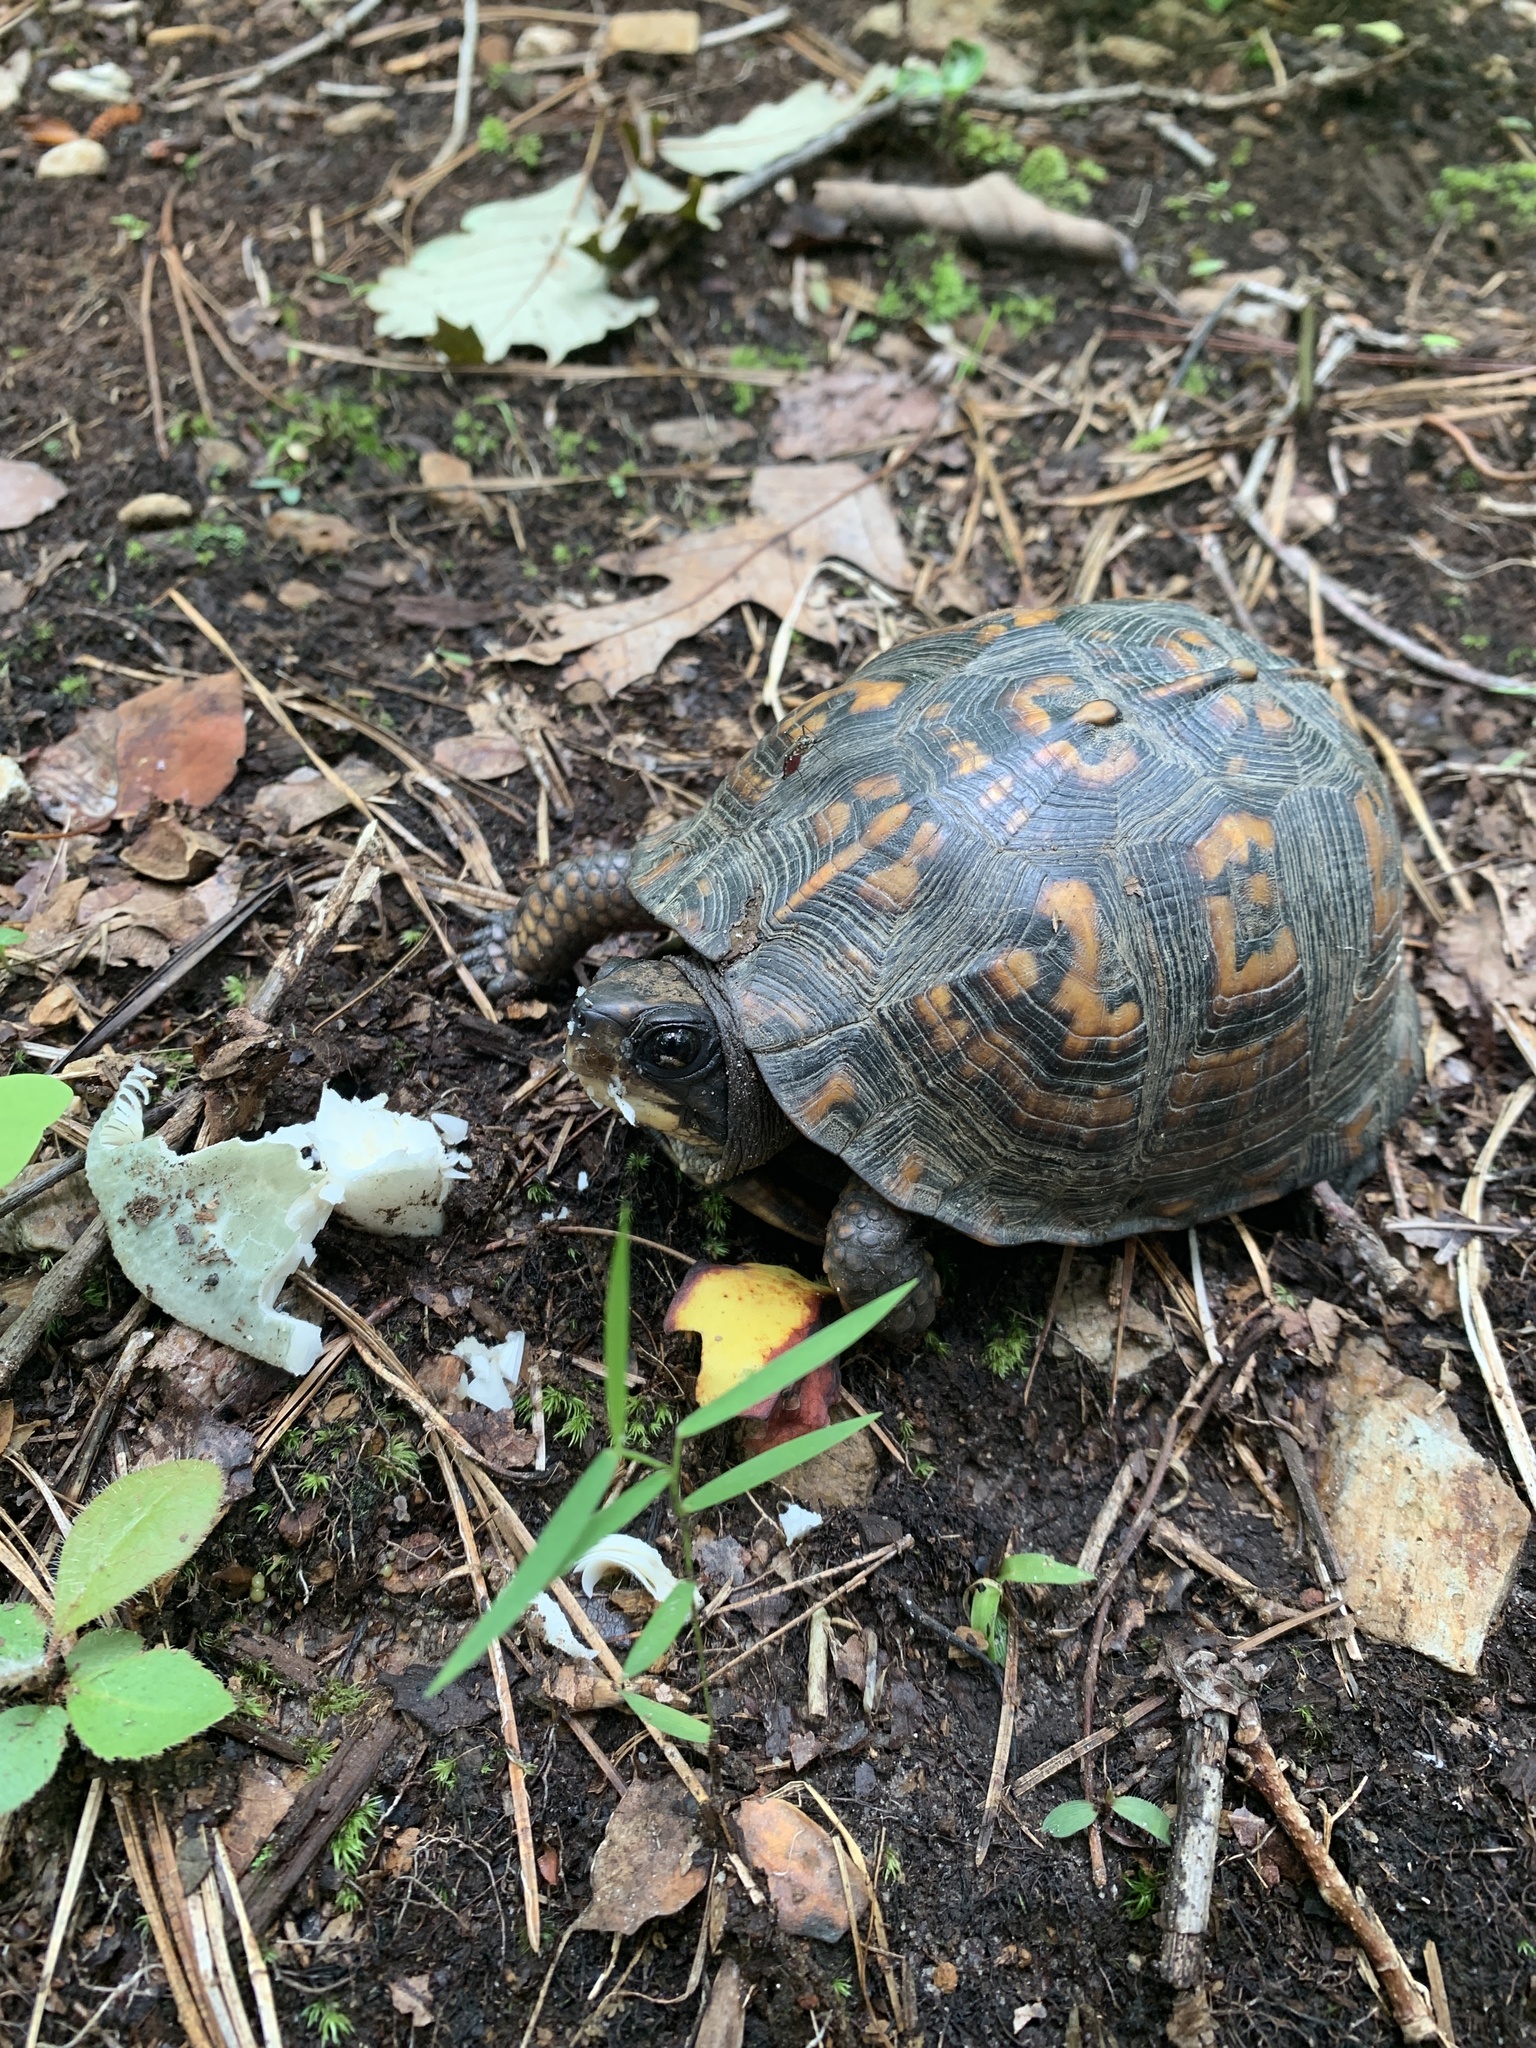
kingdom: Animalia
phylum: Chordata
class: Testudines
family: Emydidae
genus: Terrapene
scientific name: Terrapene carolina
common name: Common box turtle
